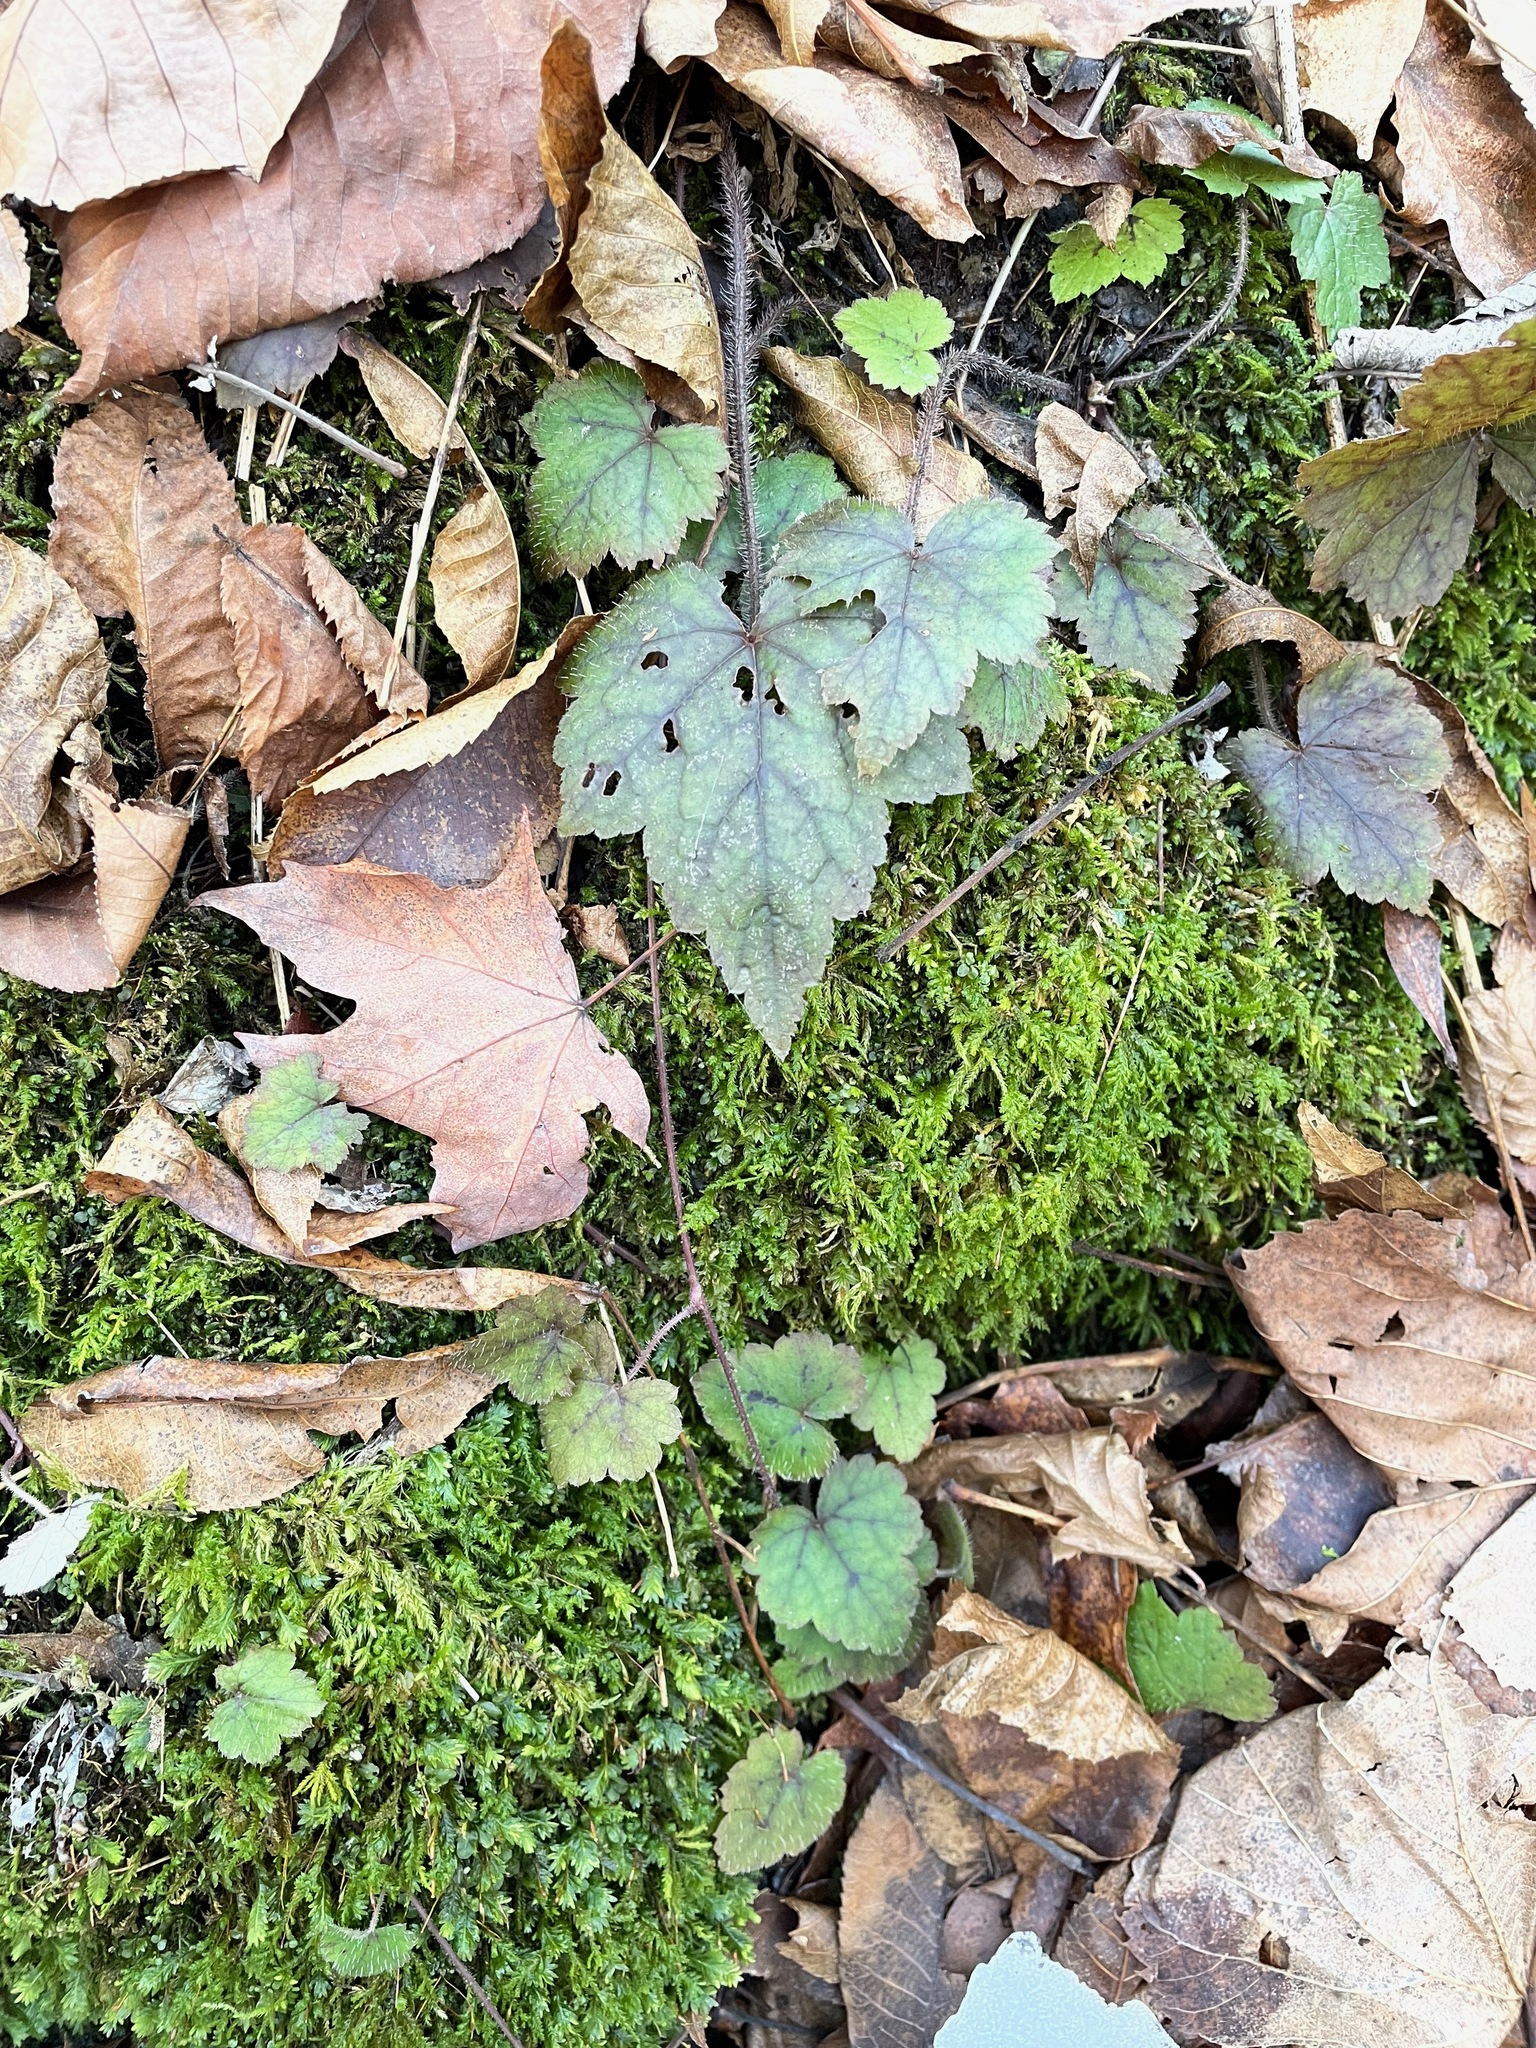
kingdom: Plantae
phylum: Tracheophyta
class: Magnoliopsida
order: Saxifragales
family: Saxifragaceae
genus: Tiarella
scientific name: Tiarella stolonifera
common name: Stoloniferous foamflower
